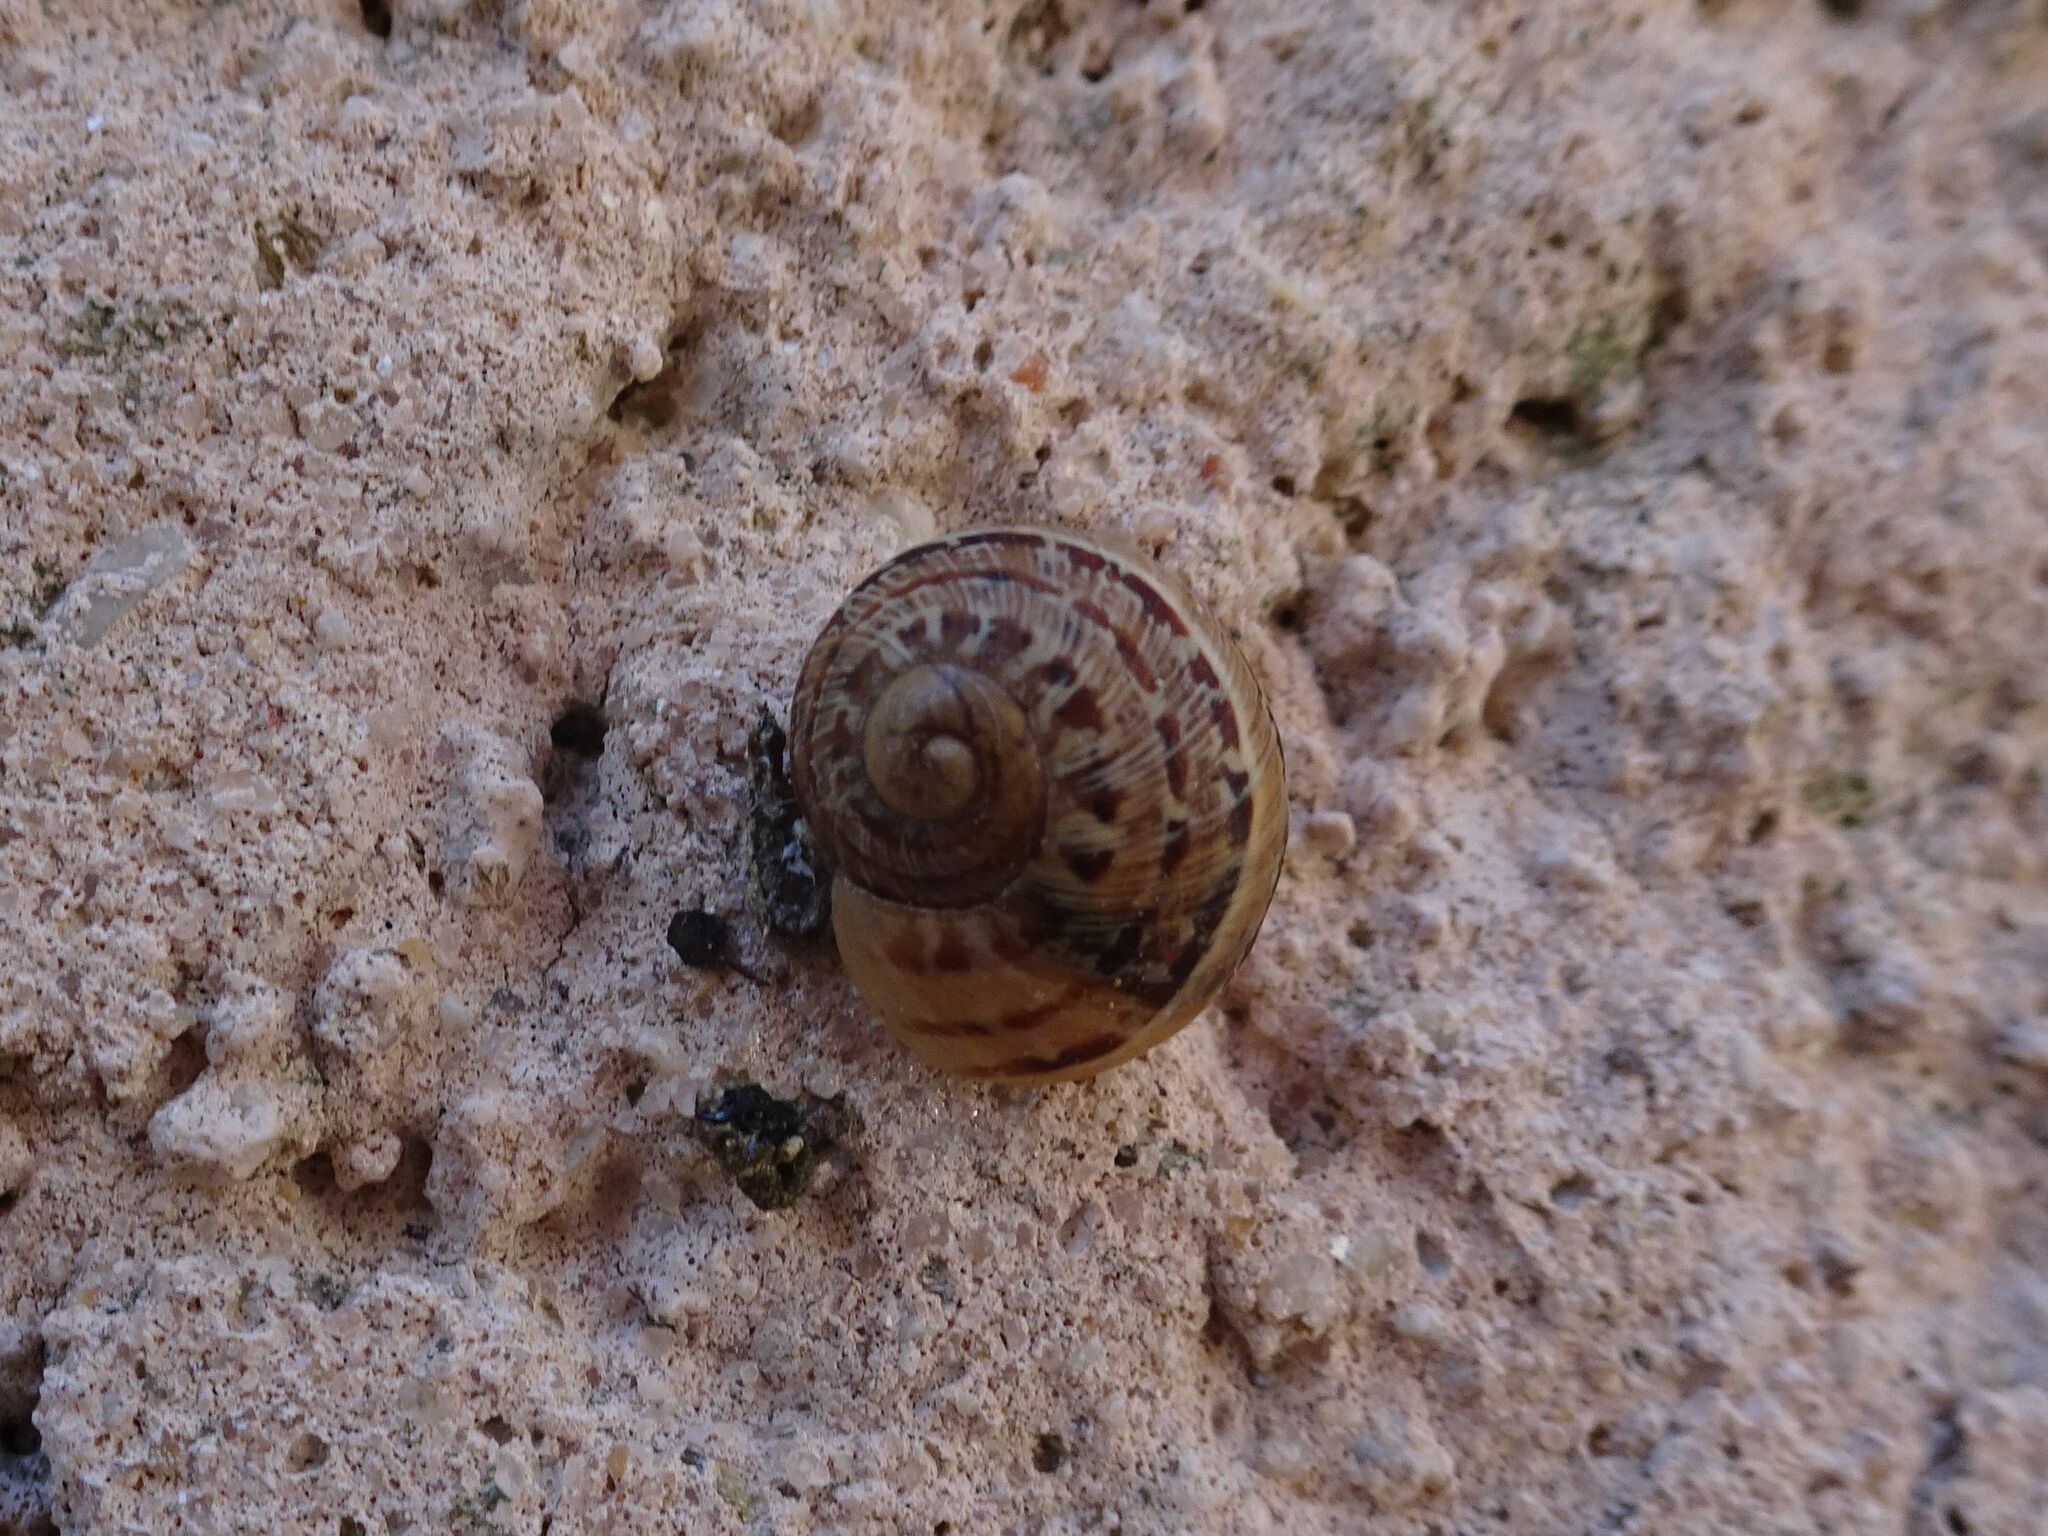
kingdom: Animalia
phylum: Mollusca
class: Gastropoda
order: Stylommatophora
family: Helicidae
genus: Cornu
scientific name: Cornu aspersum
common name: Brown garden snail
